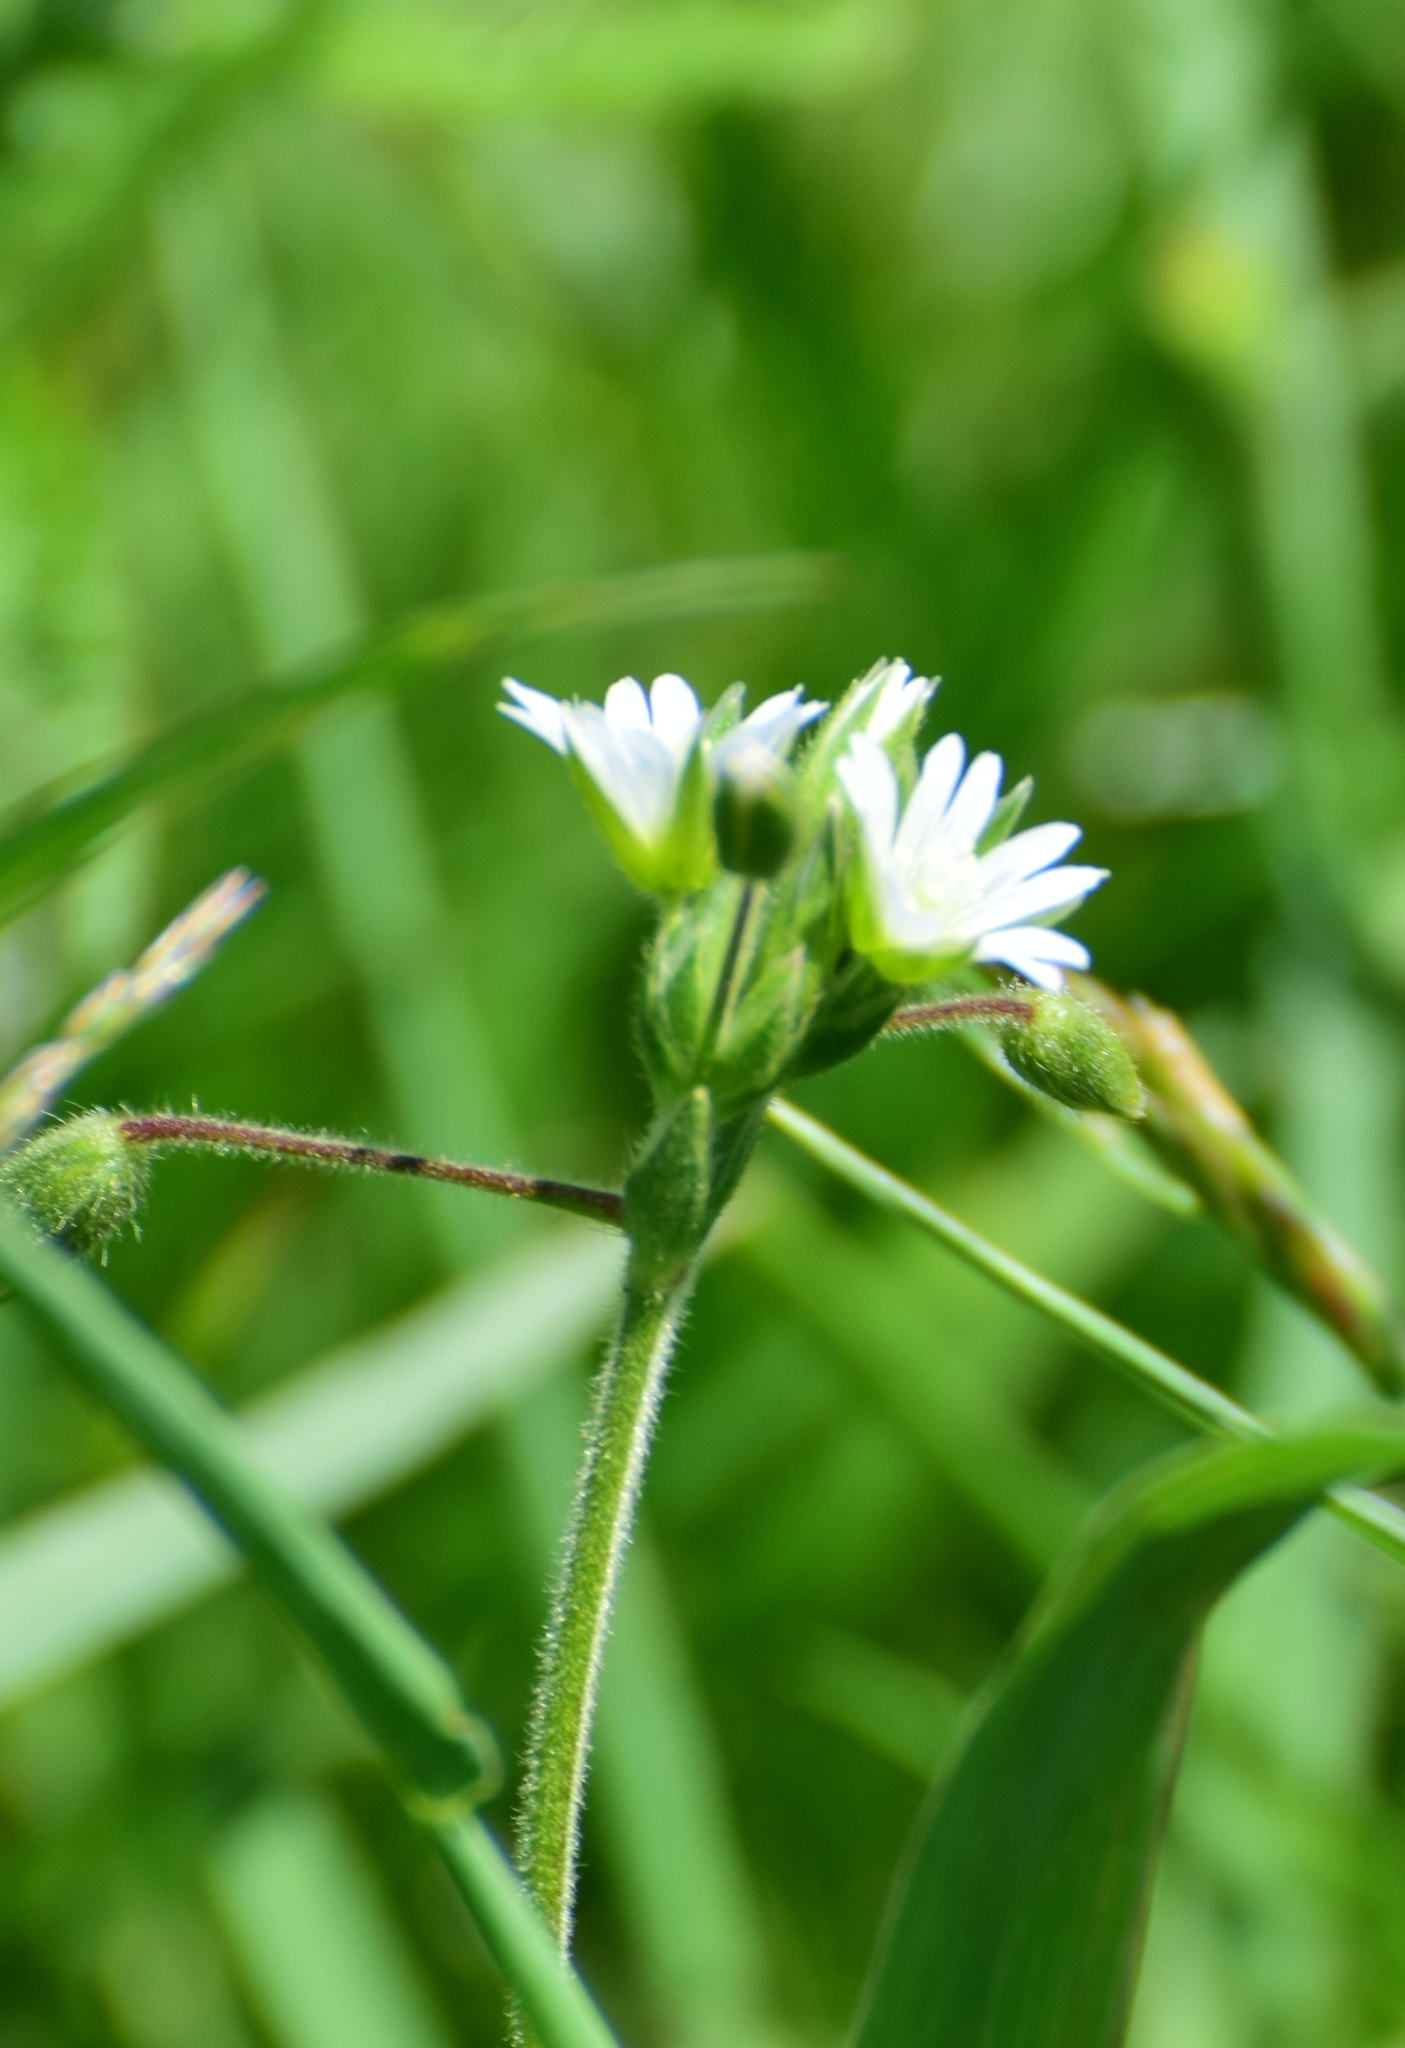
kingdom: Plantae
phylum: Tracheophyta
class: Magnoliopsida
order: Caryophyllales
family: Caryophyllaceae
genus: Cerastium
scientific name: Cerastium holosteoides
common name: Big chickweed
